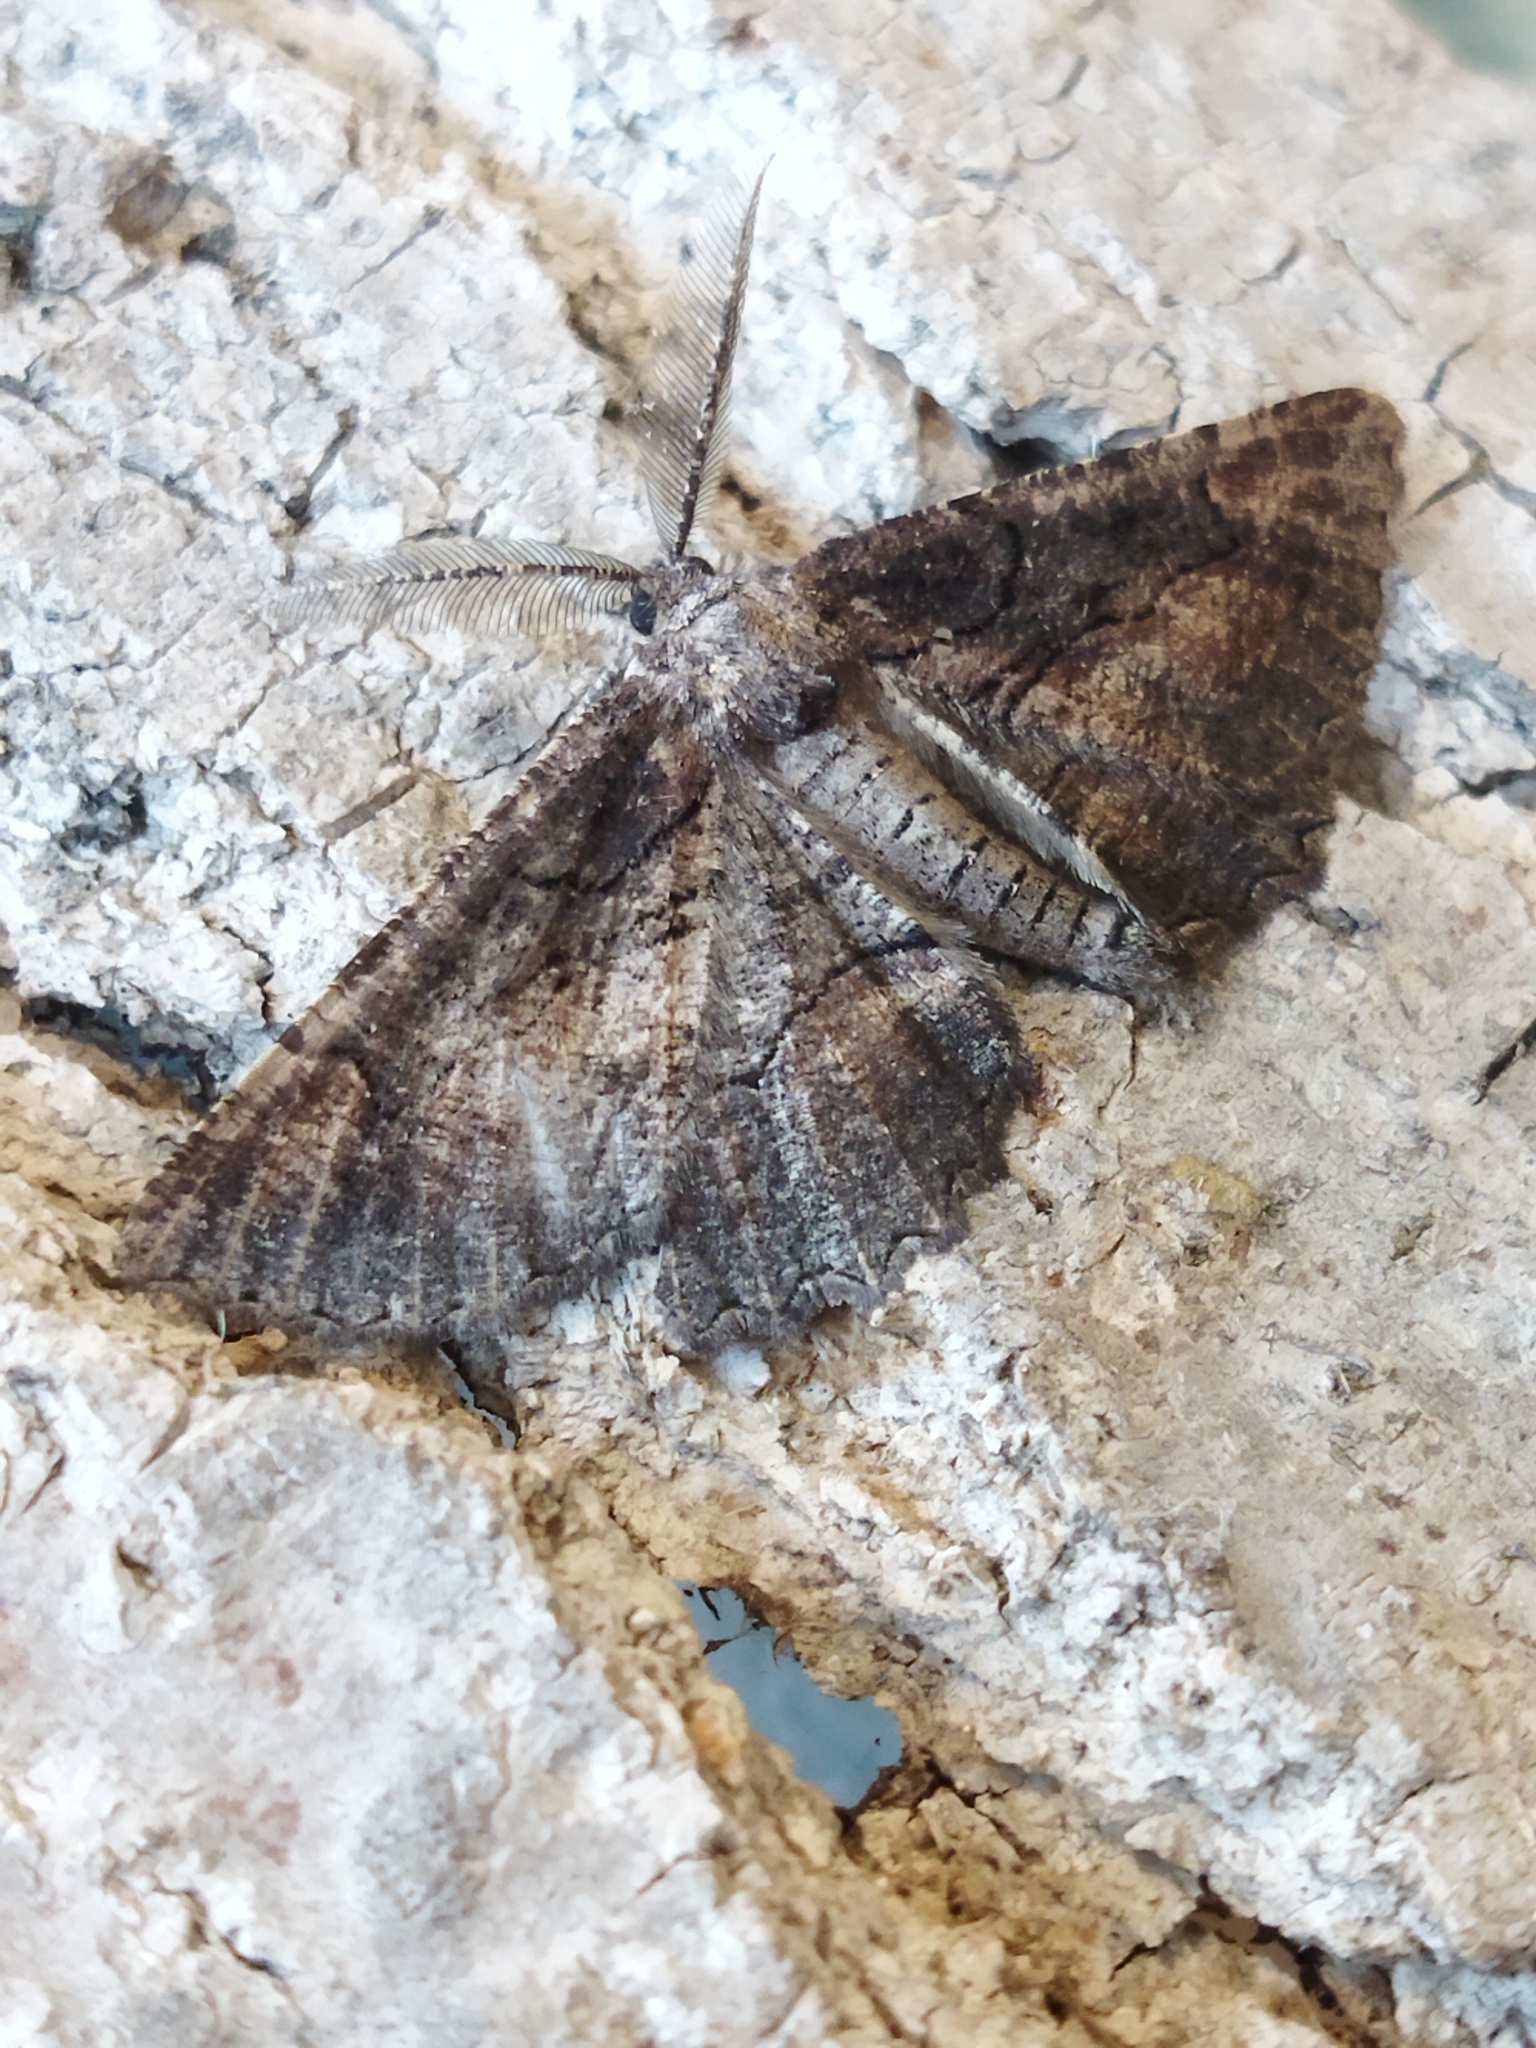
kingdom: Animalia
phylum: Arthropoda
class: Insecta
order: Lepidoptera
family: Geometridae
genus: Nychiodes
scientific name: Nychiodes waltheri
